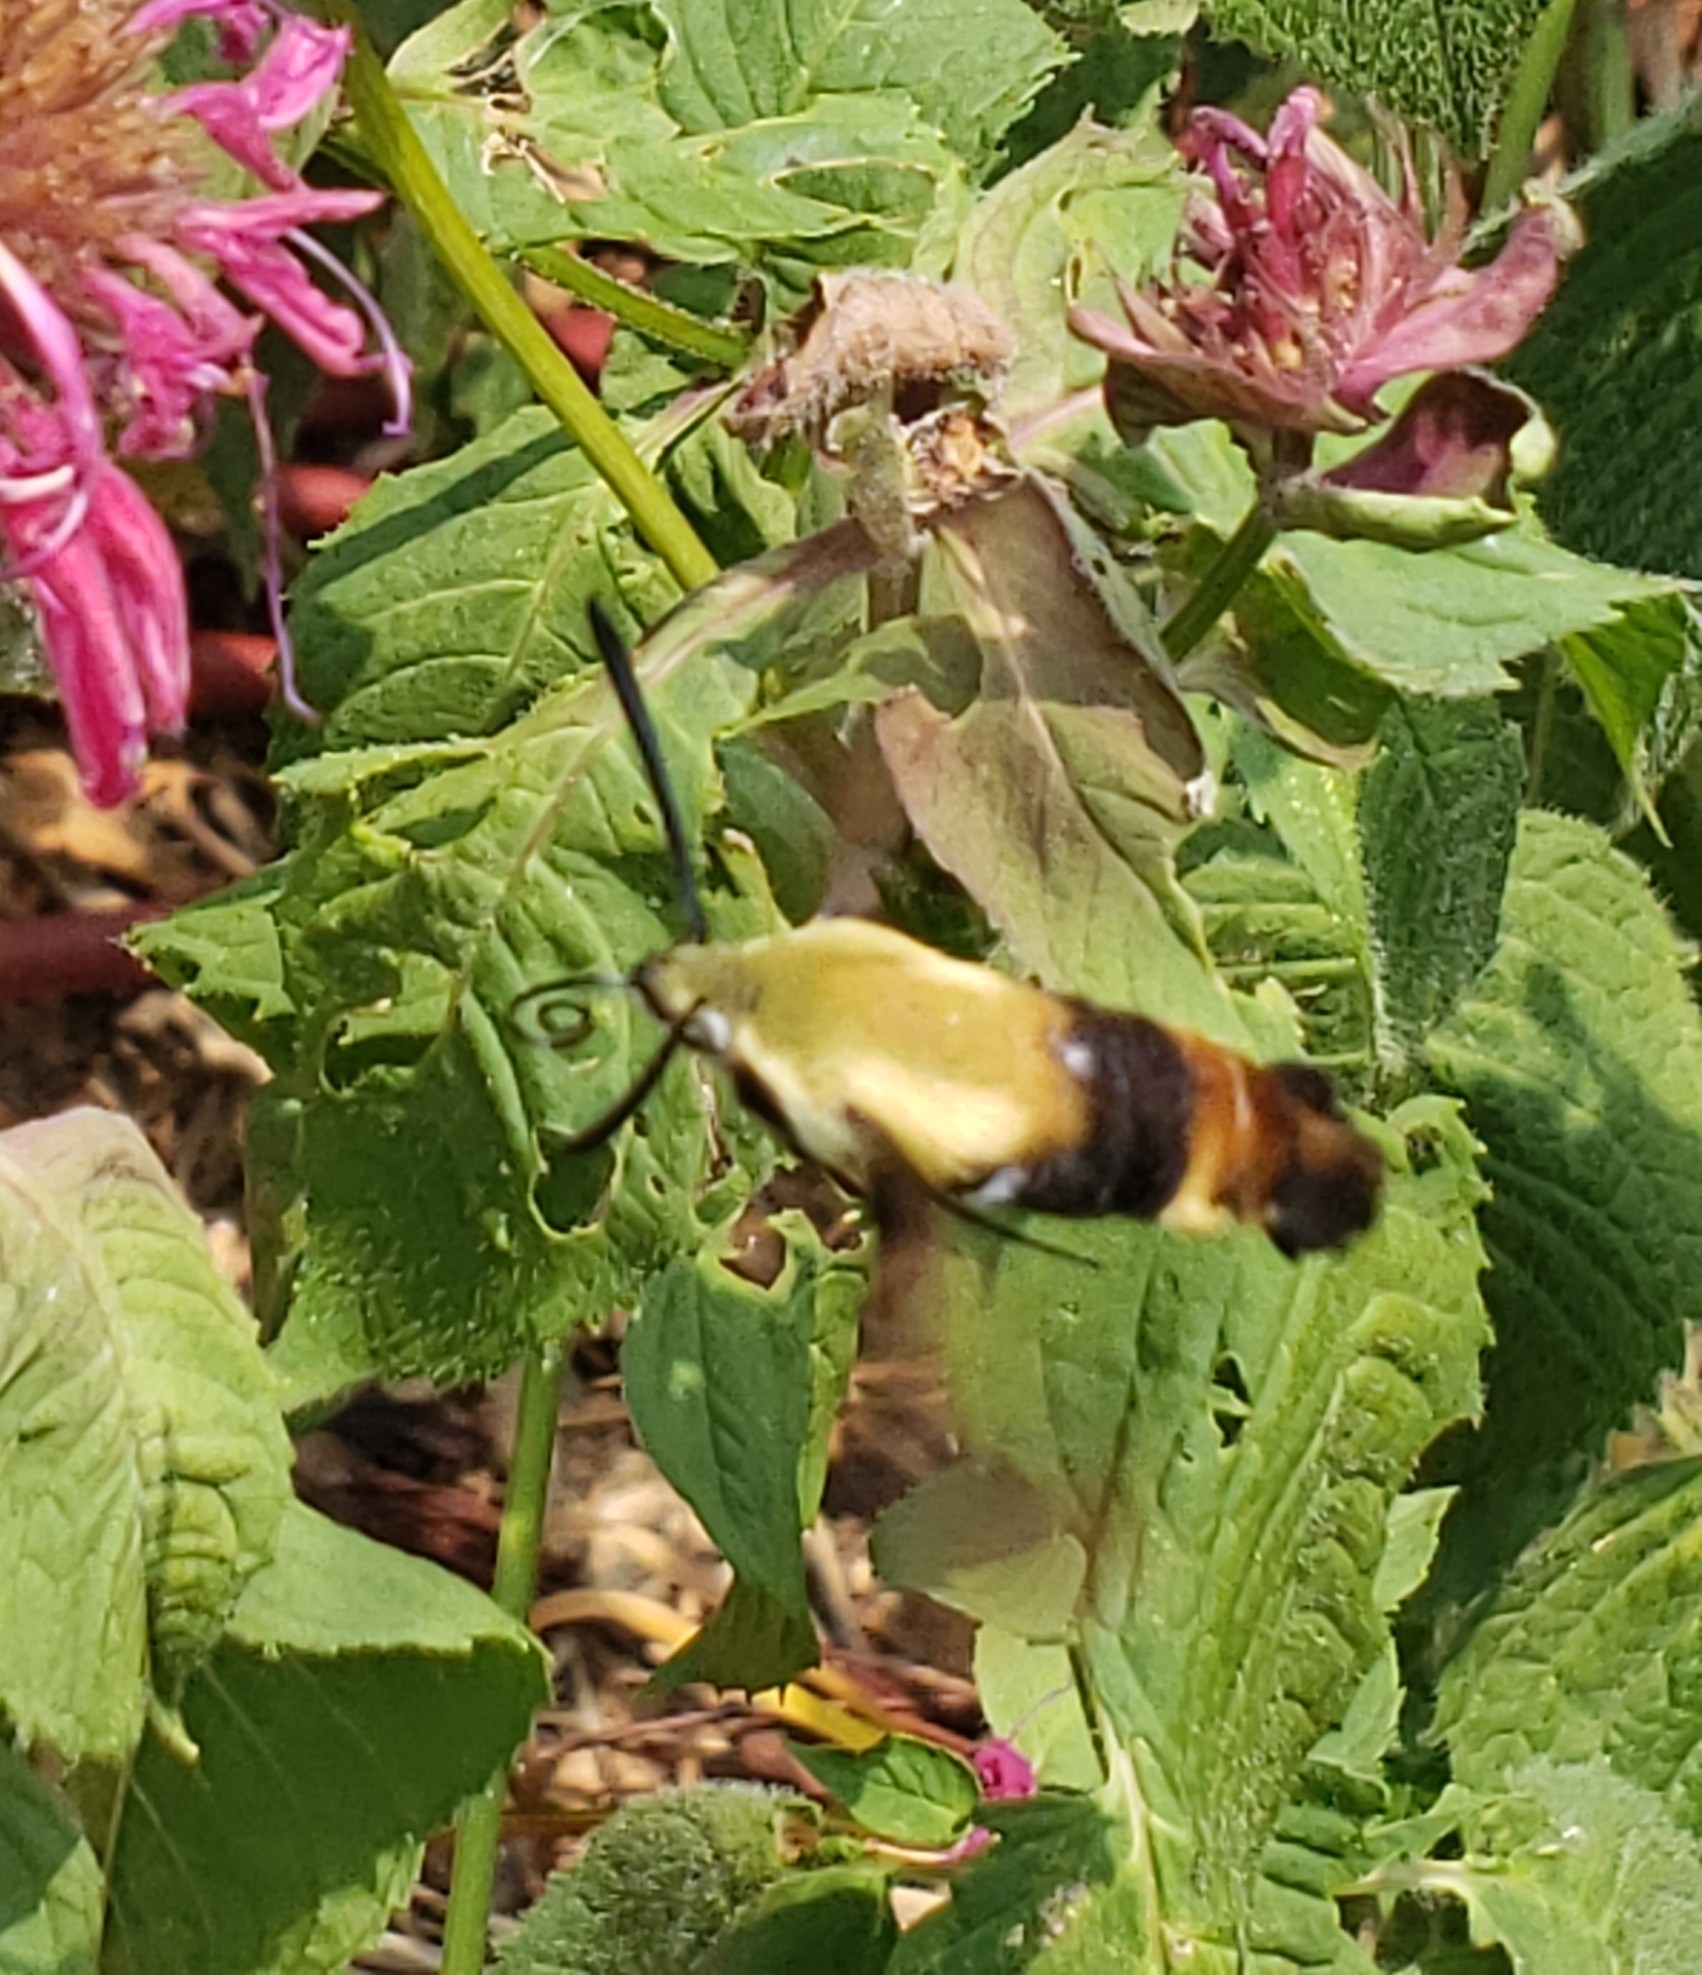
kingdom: Animalia
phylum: Arthropoda
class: Insecta
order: Lepidoptera
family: Sphingidae
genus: Hemaris
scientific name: Hemaris diffinis
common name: Bumblebee moth
